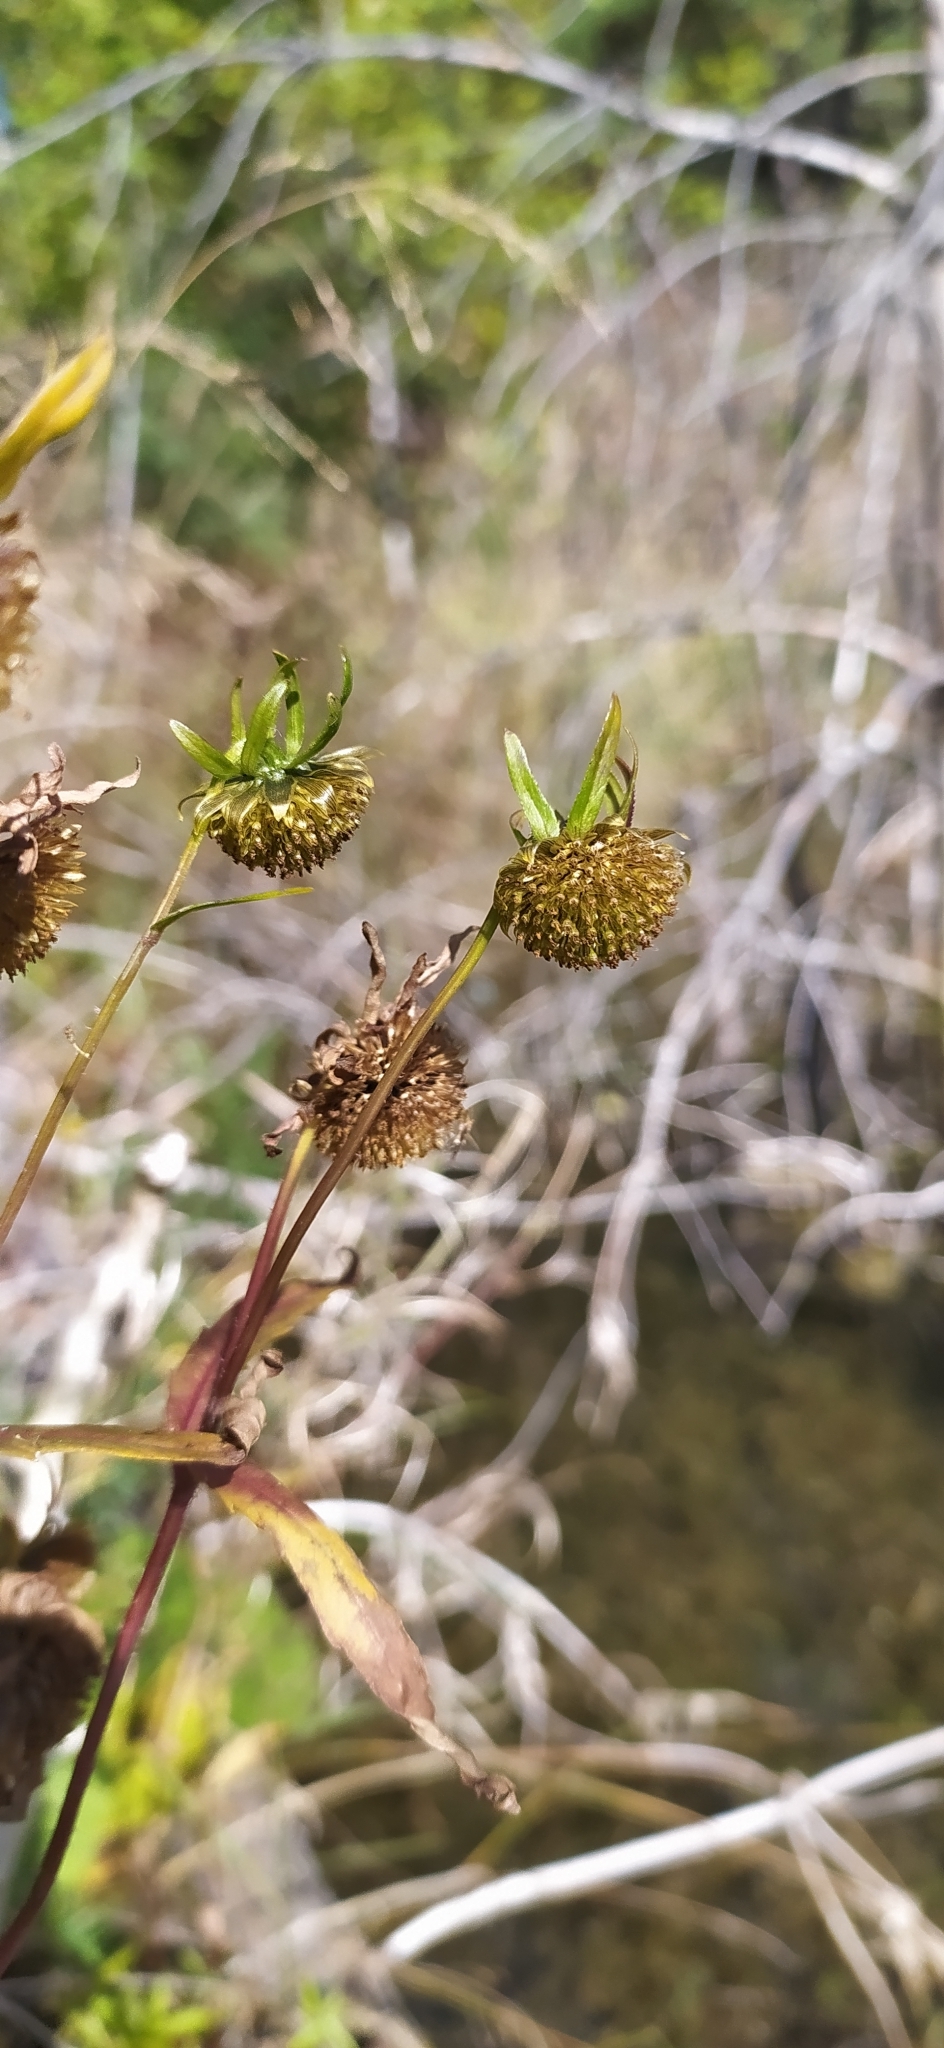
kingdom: Plantae
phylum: Tracheophyta
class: Magnoliopsida
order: Asterales
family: Asteraceae
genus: Bidens
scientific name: Bidens cernua
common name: Nodding bur-marigold
